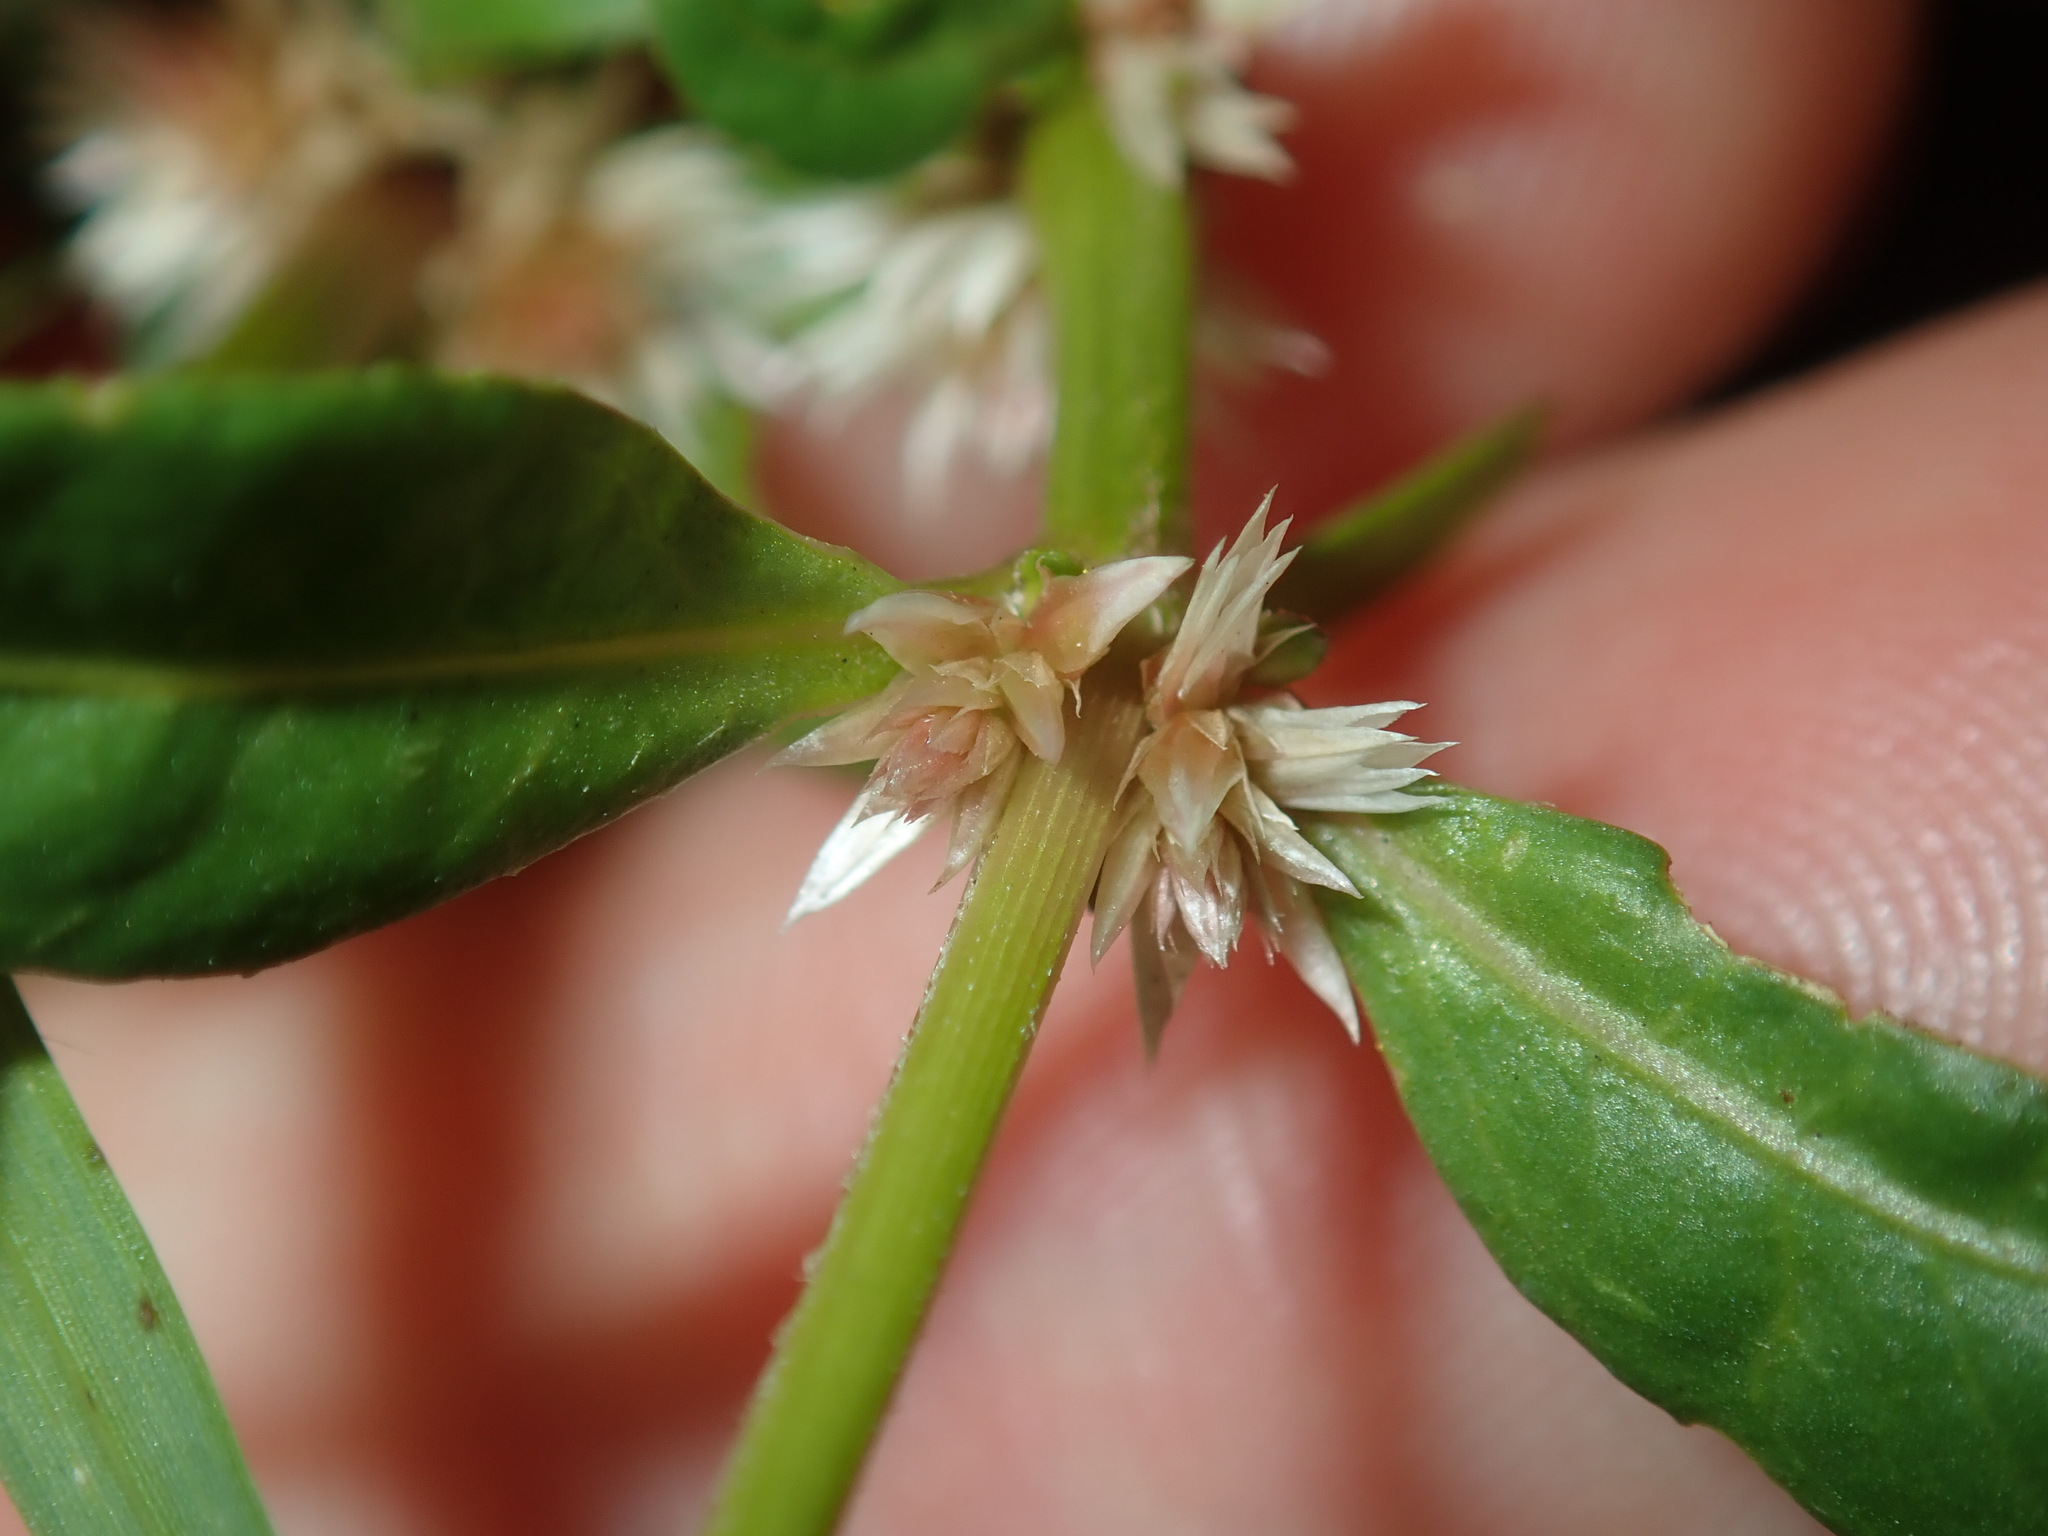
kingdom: Plantae
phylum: Tracheophyta
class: Magnoliopsida
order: Caryophyllales
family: Amaranthaceae
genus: Alternanthera
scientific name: Alternanthera denticulata
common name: Lesser joyweed
